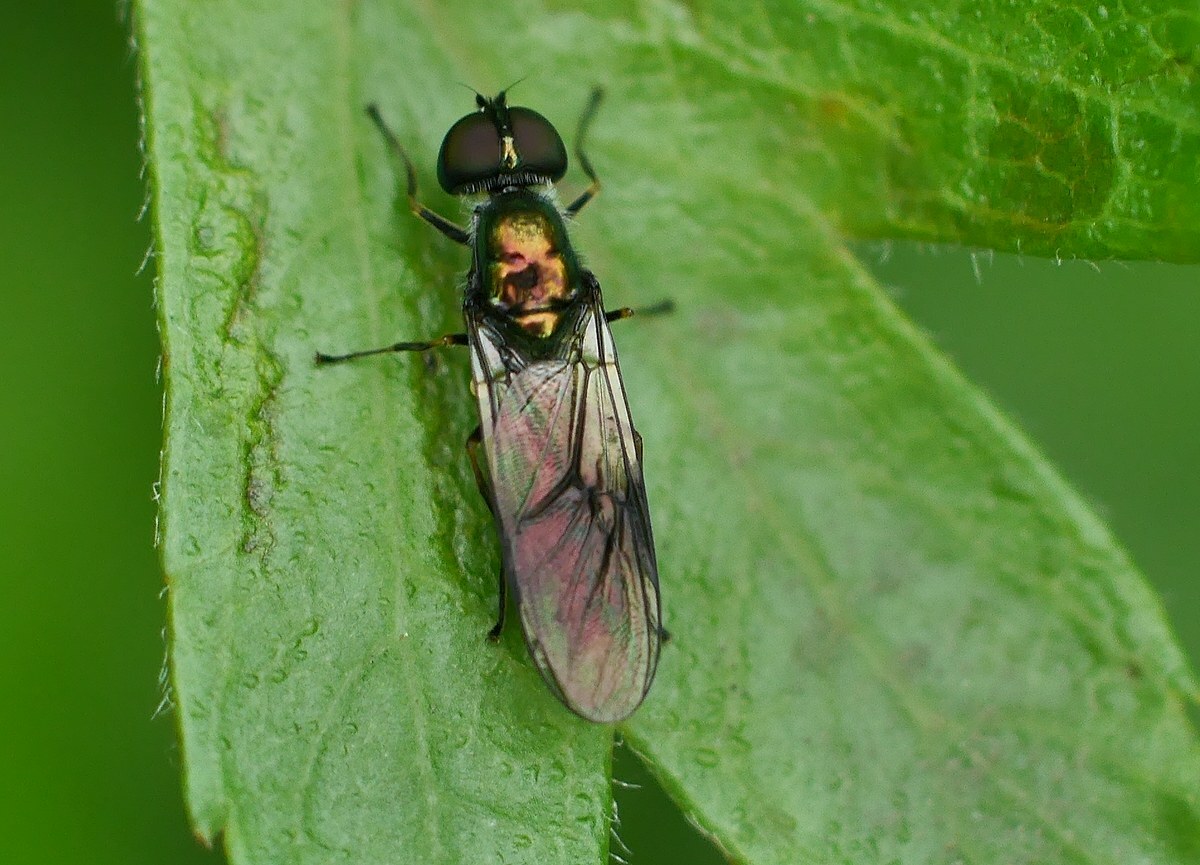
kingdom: Animalia
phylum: Arthropoda
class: Insecta
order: Diptera
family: Stratiomyidae
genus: Sargus
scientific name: Sargus cuprarius
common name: Soldier fly
